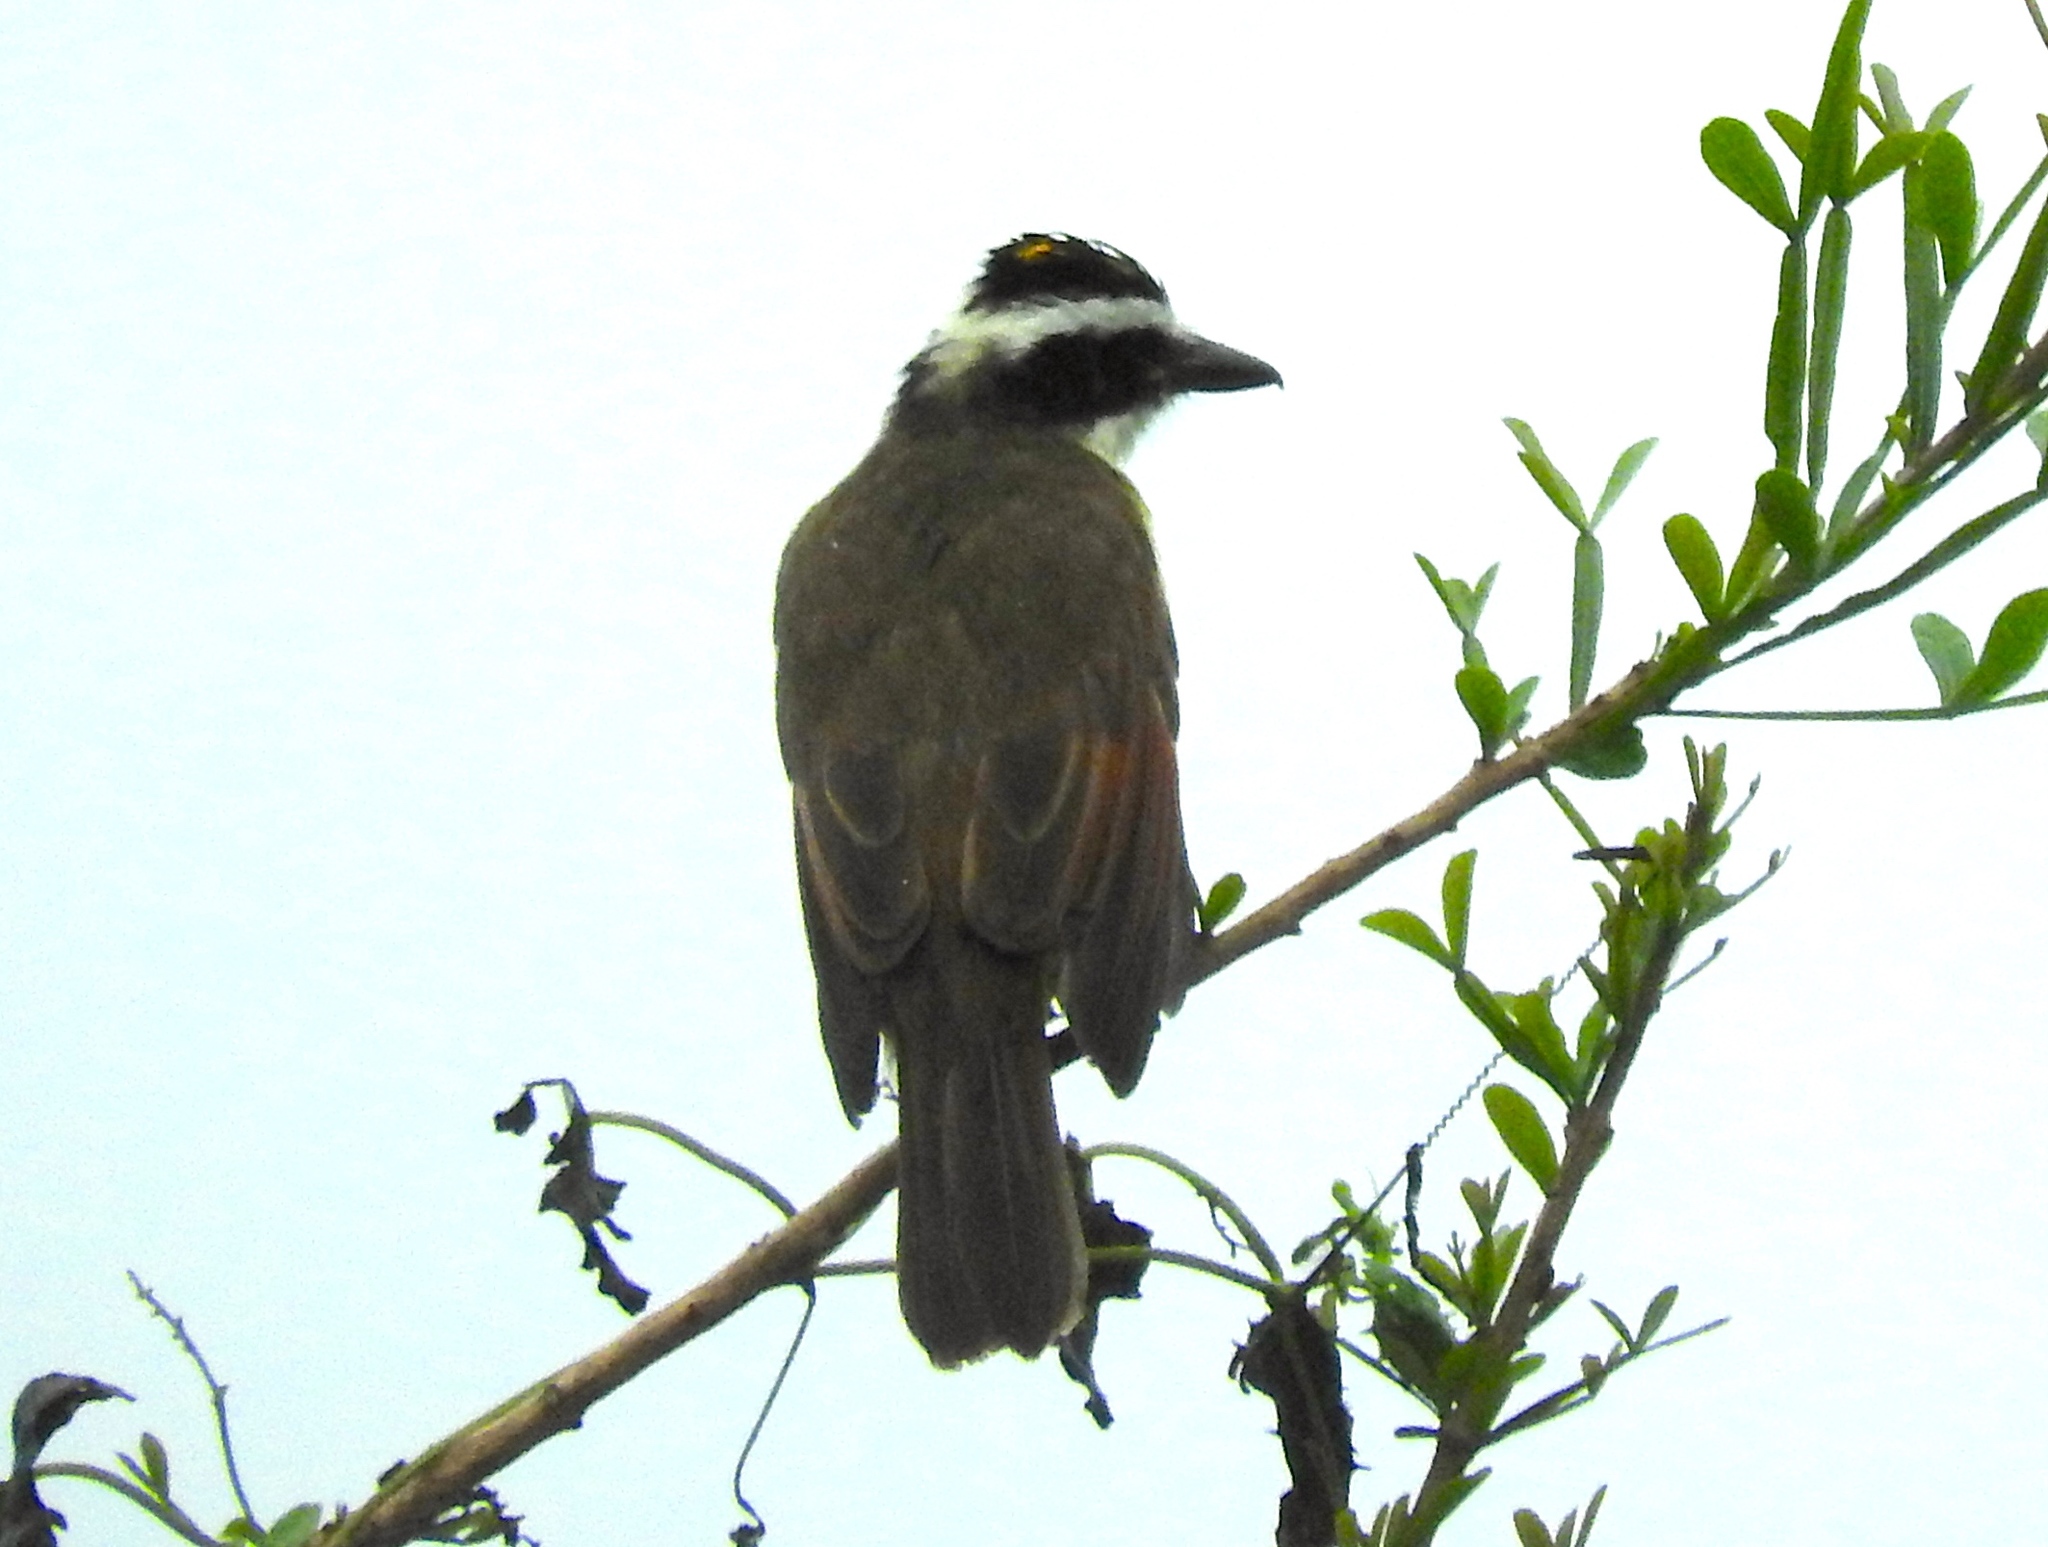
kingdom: Animalia
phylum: Chordata
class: Aves
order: Passeriformes
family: Tyrannidae
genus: Pitangus
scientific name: Pitangus sulphuratus
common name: Great kiskadee
